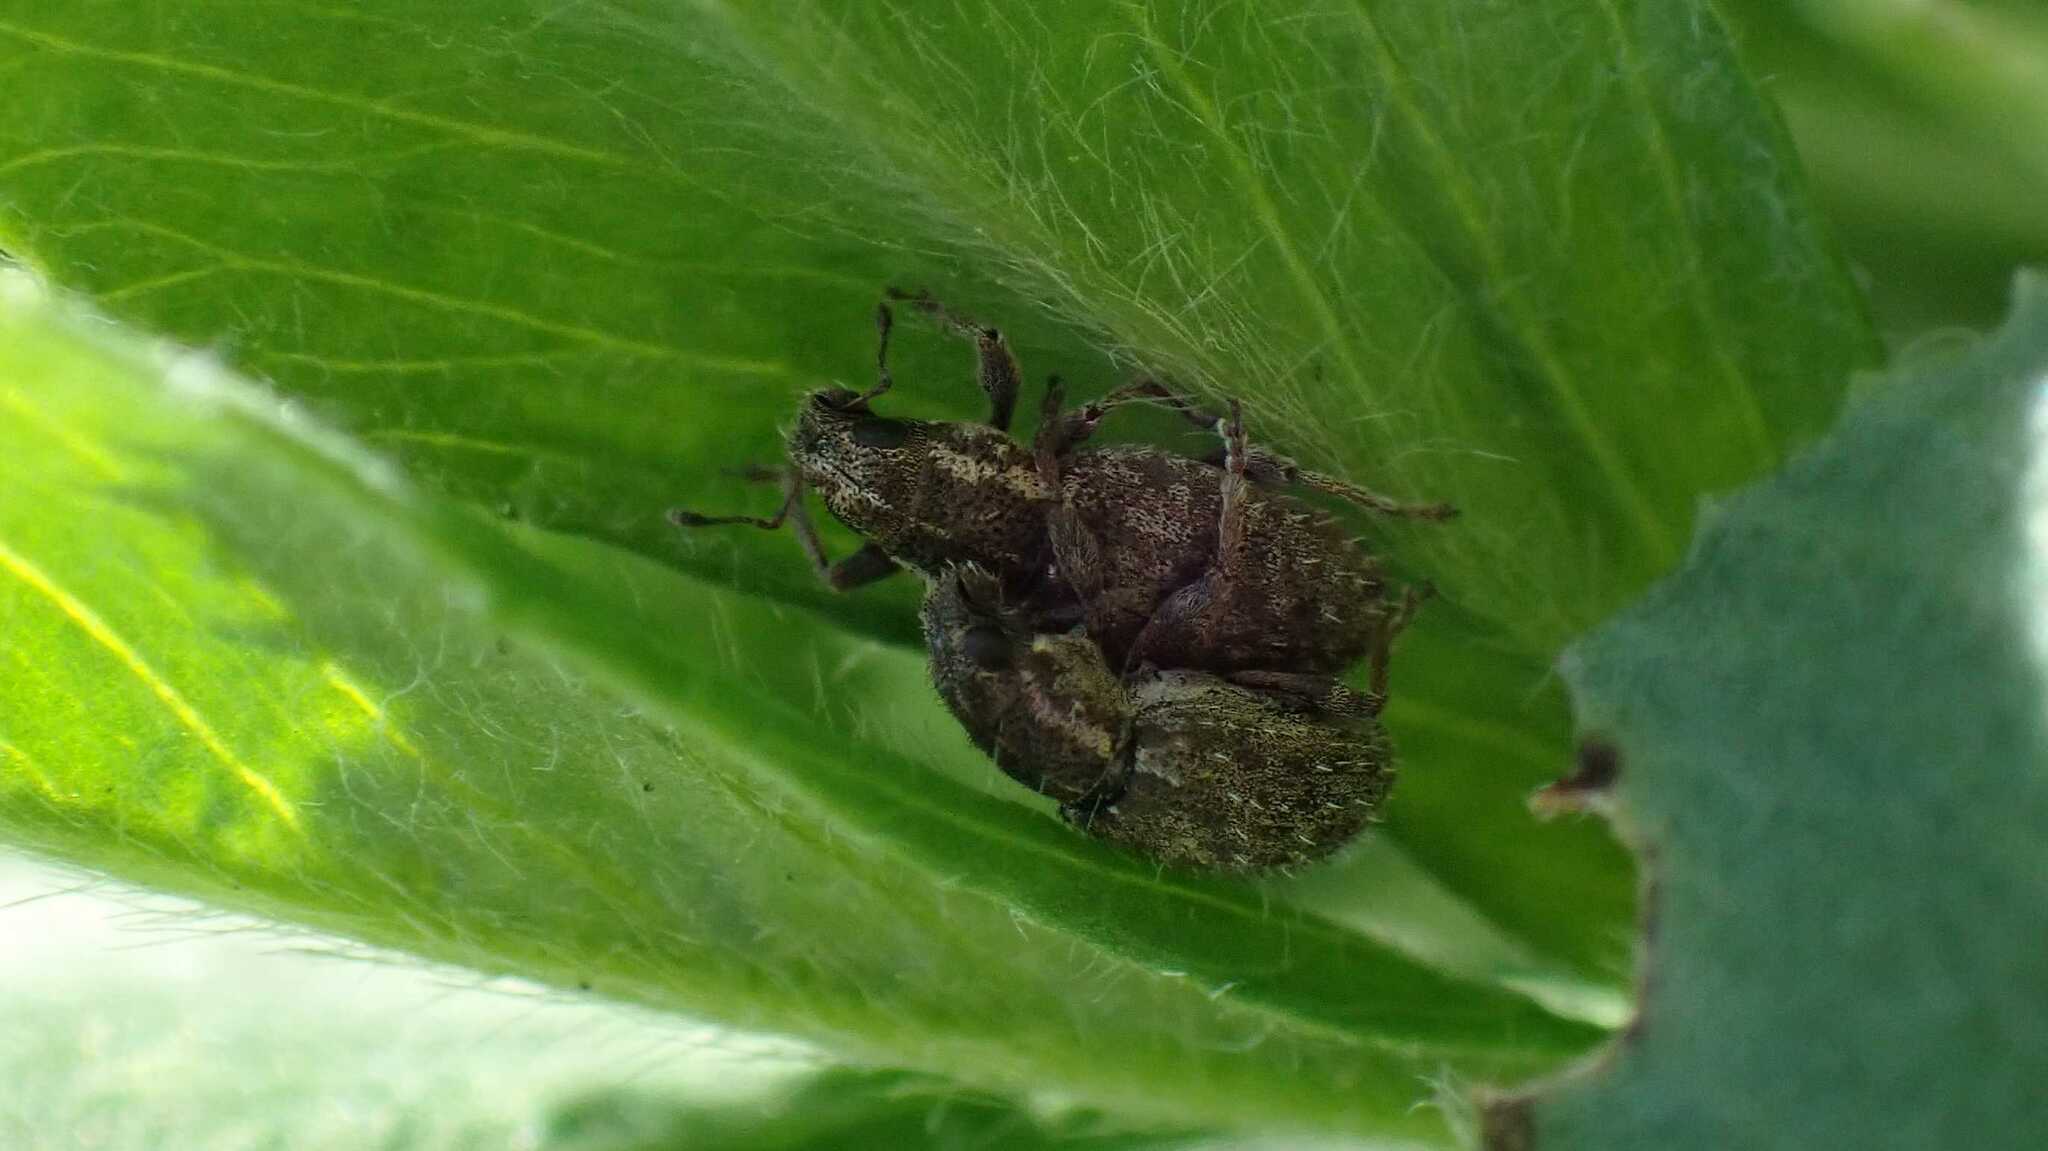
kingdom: Animalia
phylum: Arthropoda
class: Insecta
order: Coleoptera
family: Curculionidae
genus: Sitona
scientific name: Sitona hispidulus
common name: Clover weevil
